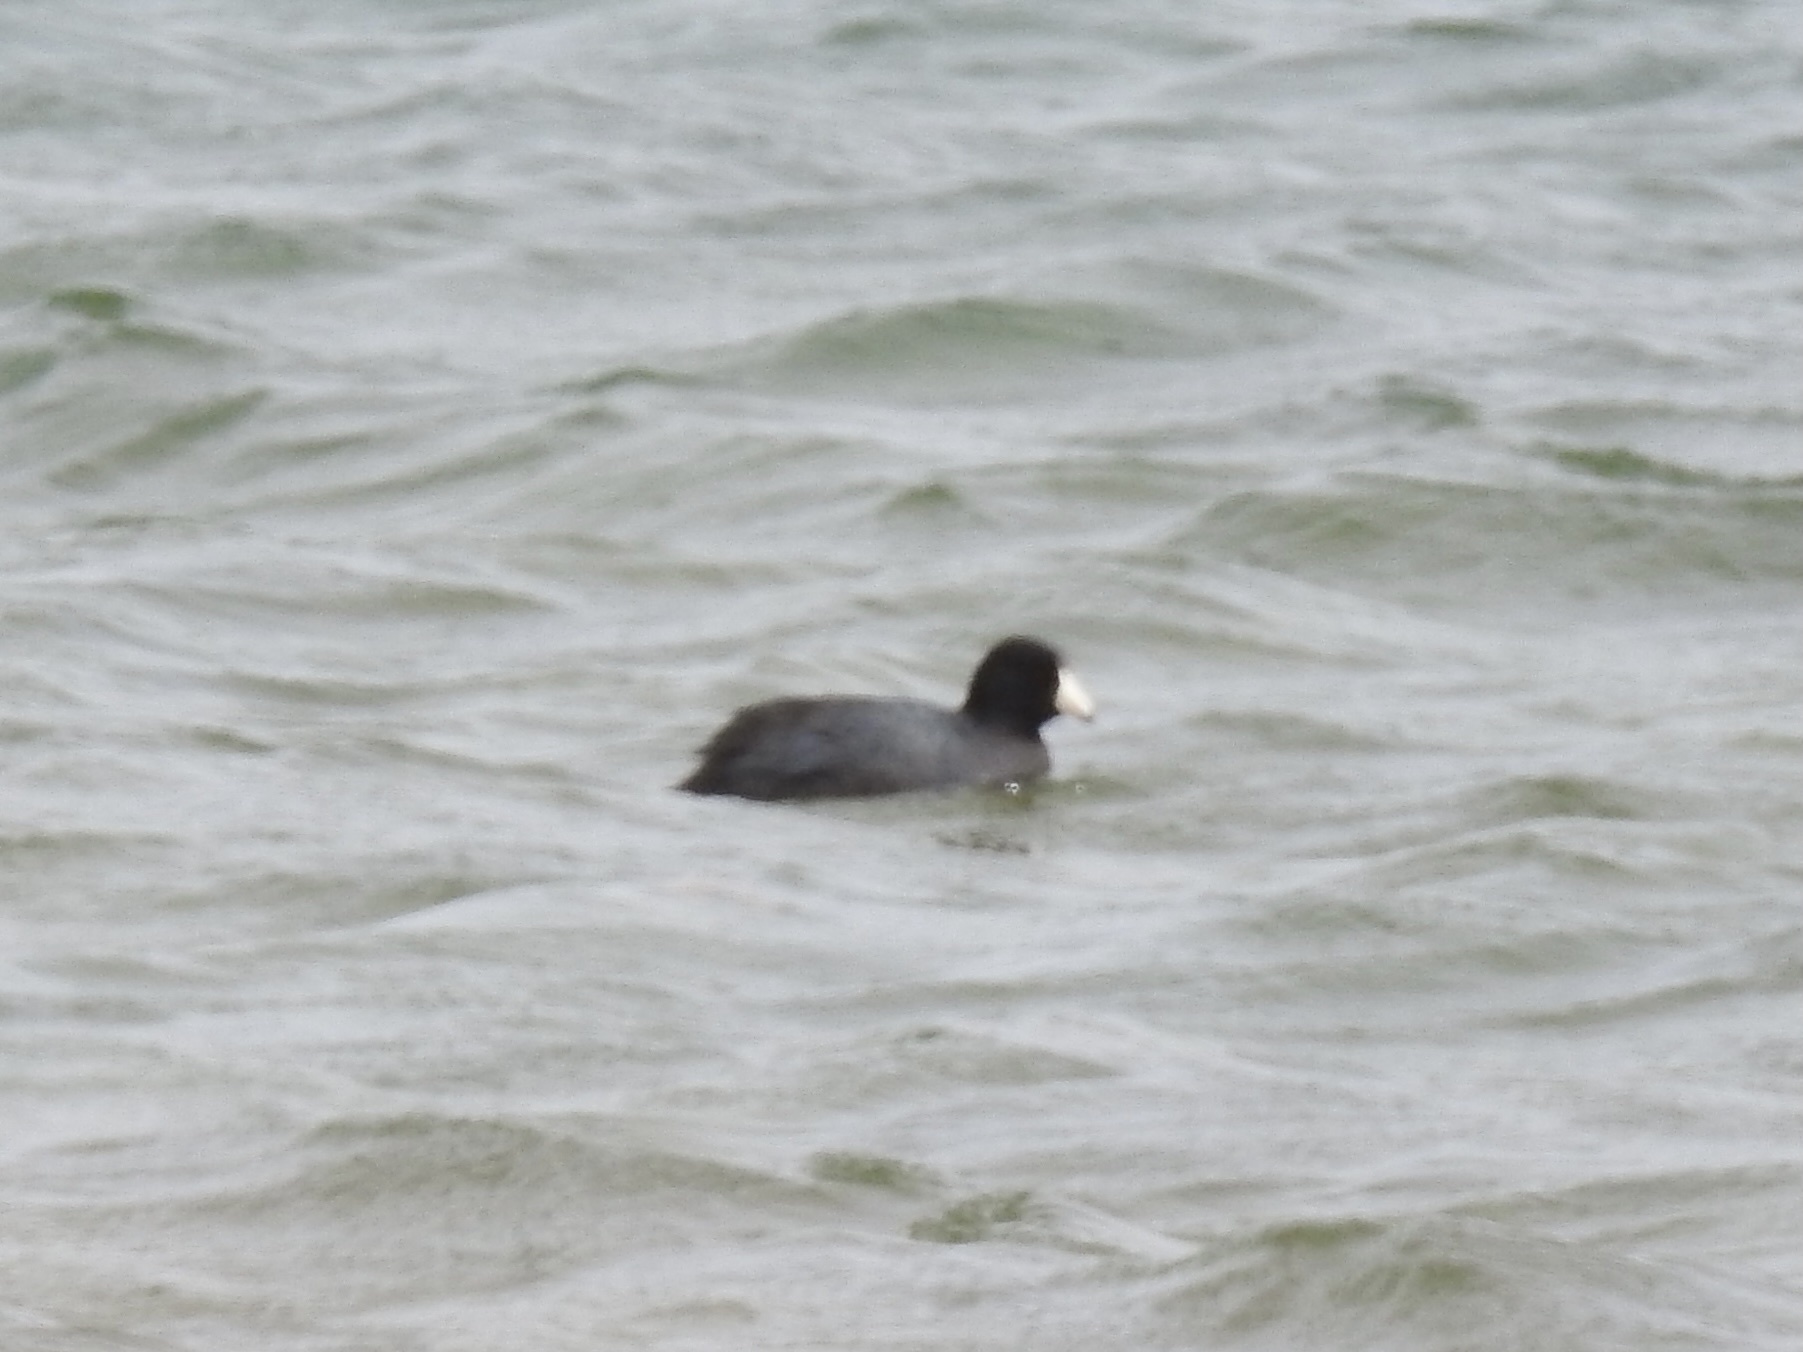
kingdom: Animalia
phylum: Chordata
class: Aves
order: Gruiformes
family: Rallidae
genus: Fulica
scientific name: Fulica americana
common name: American coot
